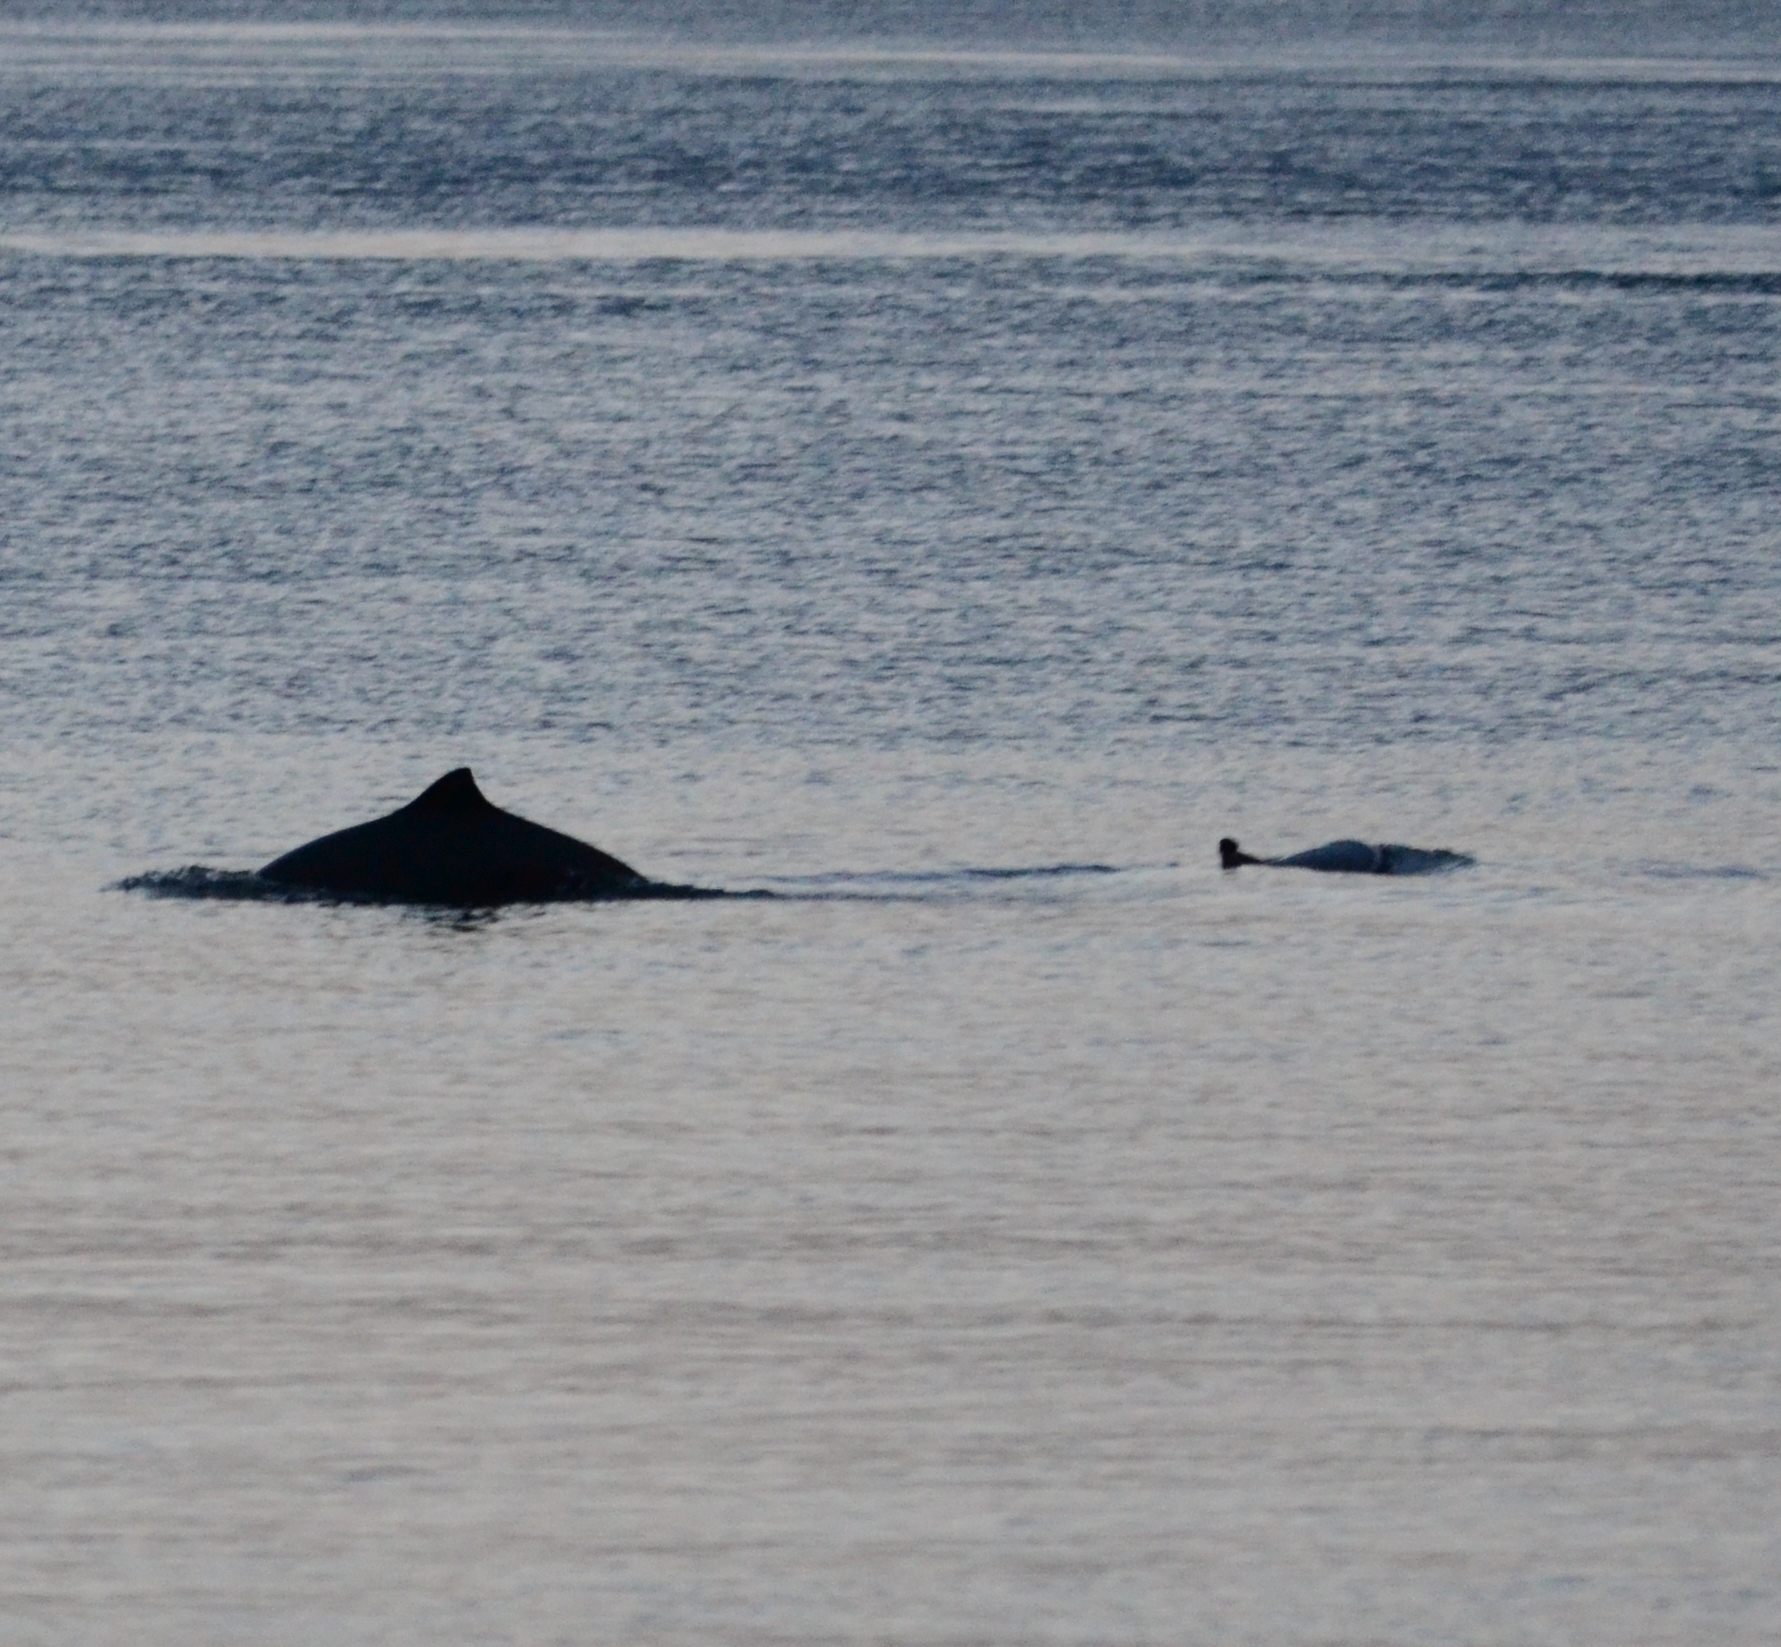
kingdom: Animalia
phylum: Chordata
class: Mammalia
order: Cetacea
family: Phocoenidae
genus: Phocoena
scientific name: Phocoena phocoena
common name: Harbor porpoise
